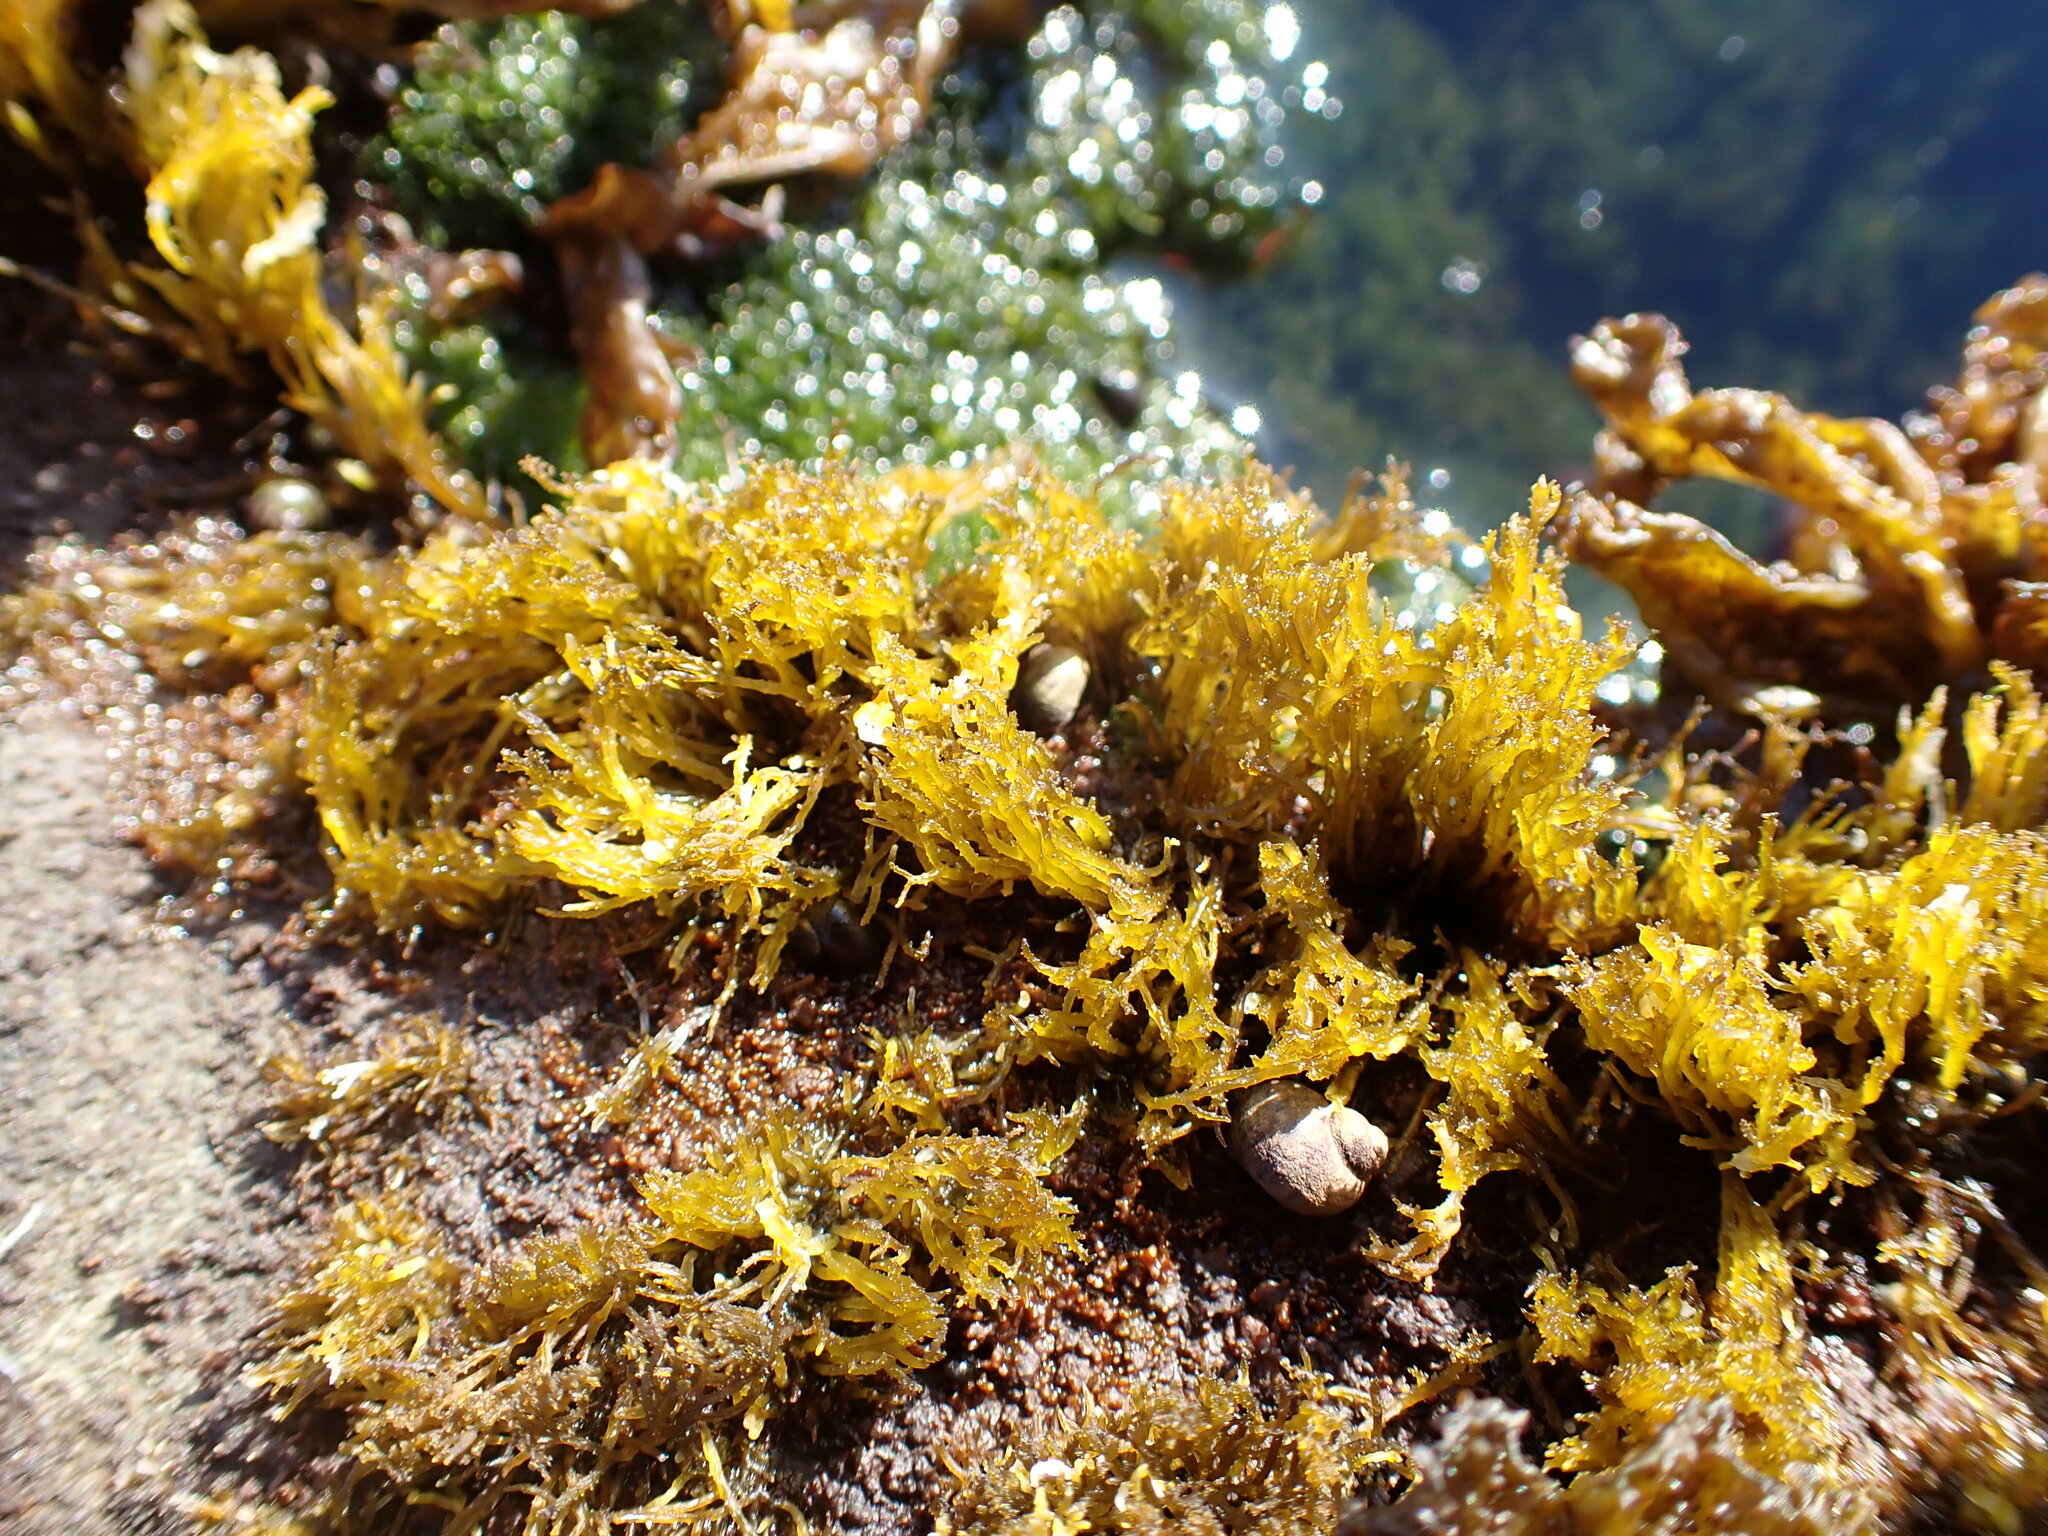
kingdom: Plantae
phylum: Rhodophyta
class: Florideophyceae
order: Gigartinales
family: Endocladiaceae
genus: Endocladia
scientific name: Endocladia muricata
